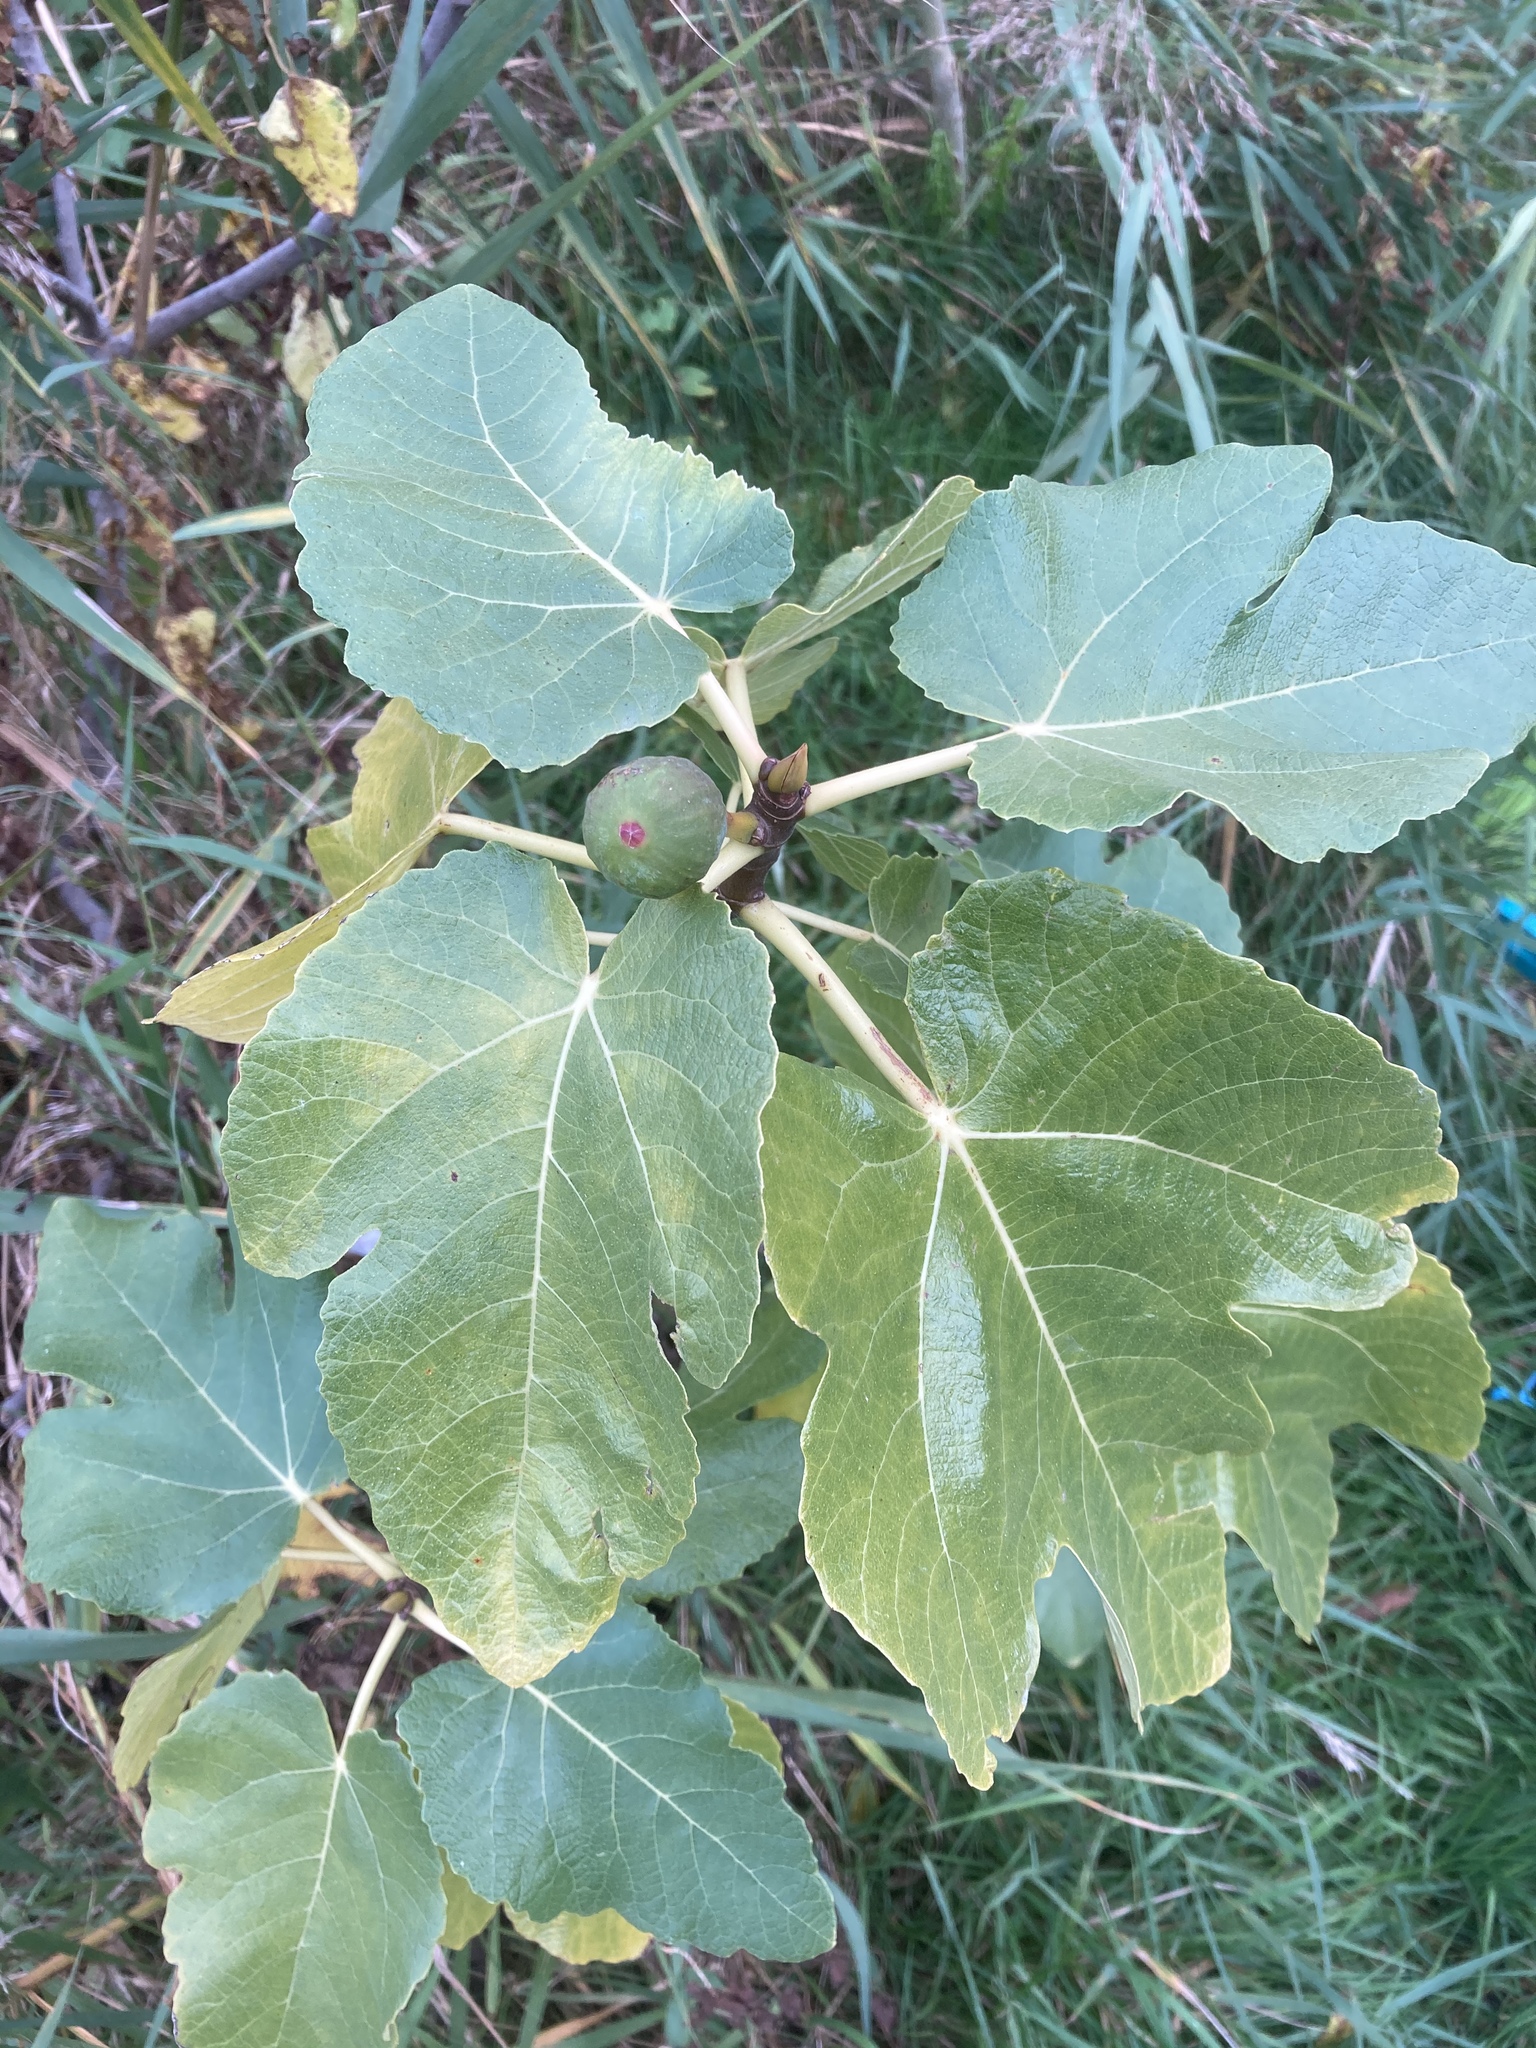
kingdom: Plantae
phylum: Tracheophyta
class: Magnoliopsida
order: Rosales
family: Moraceae
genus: Ficus
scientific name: Ficus carica
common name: Fig
